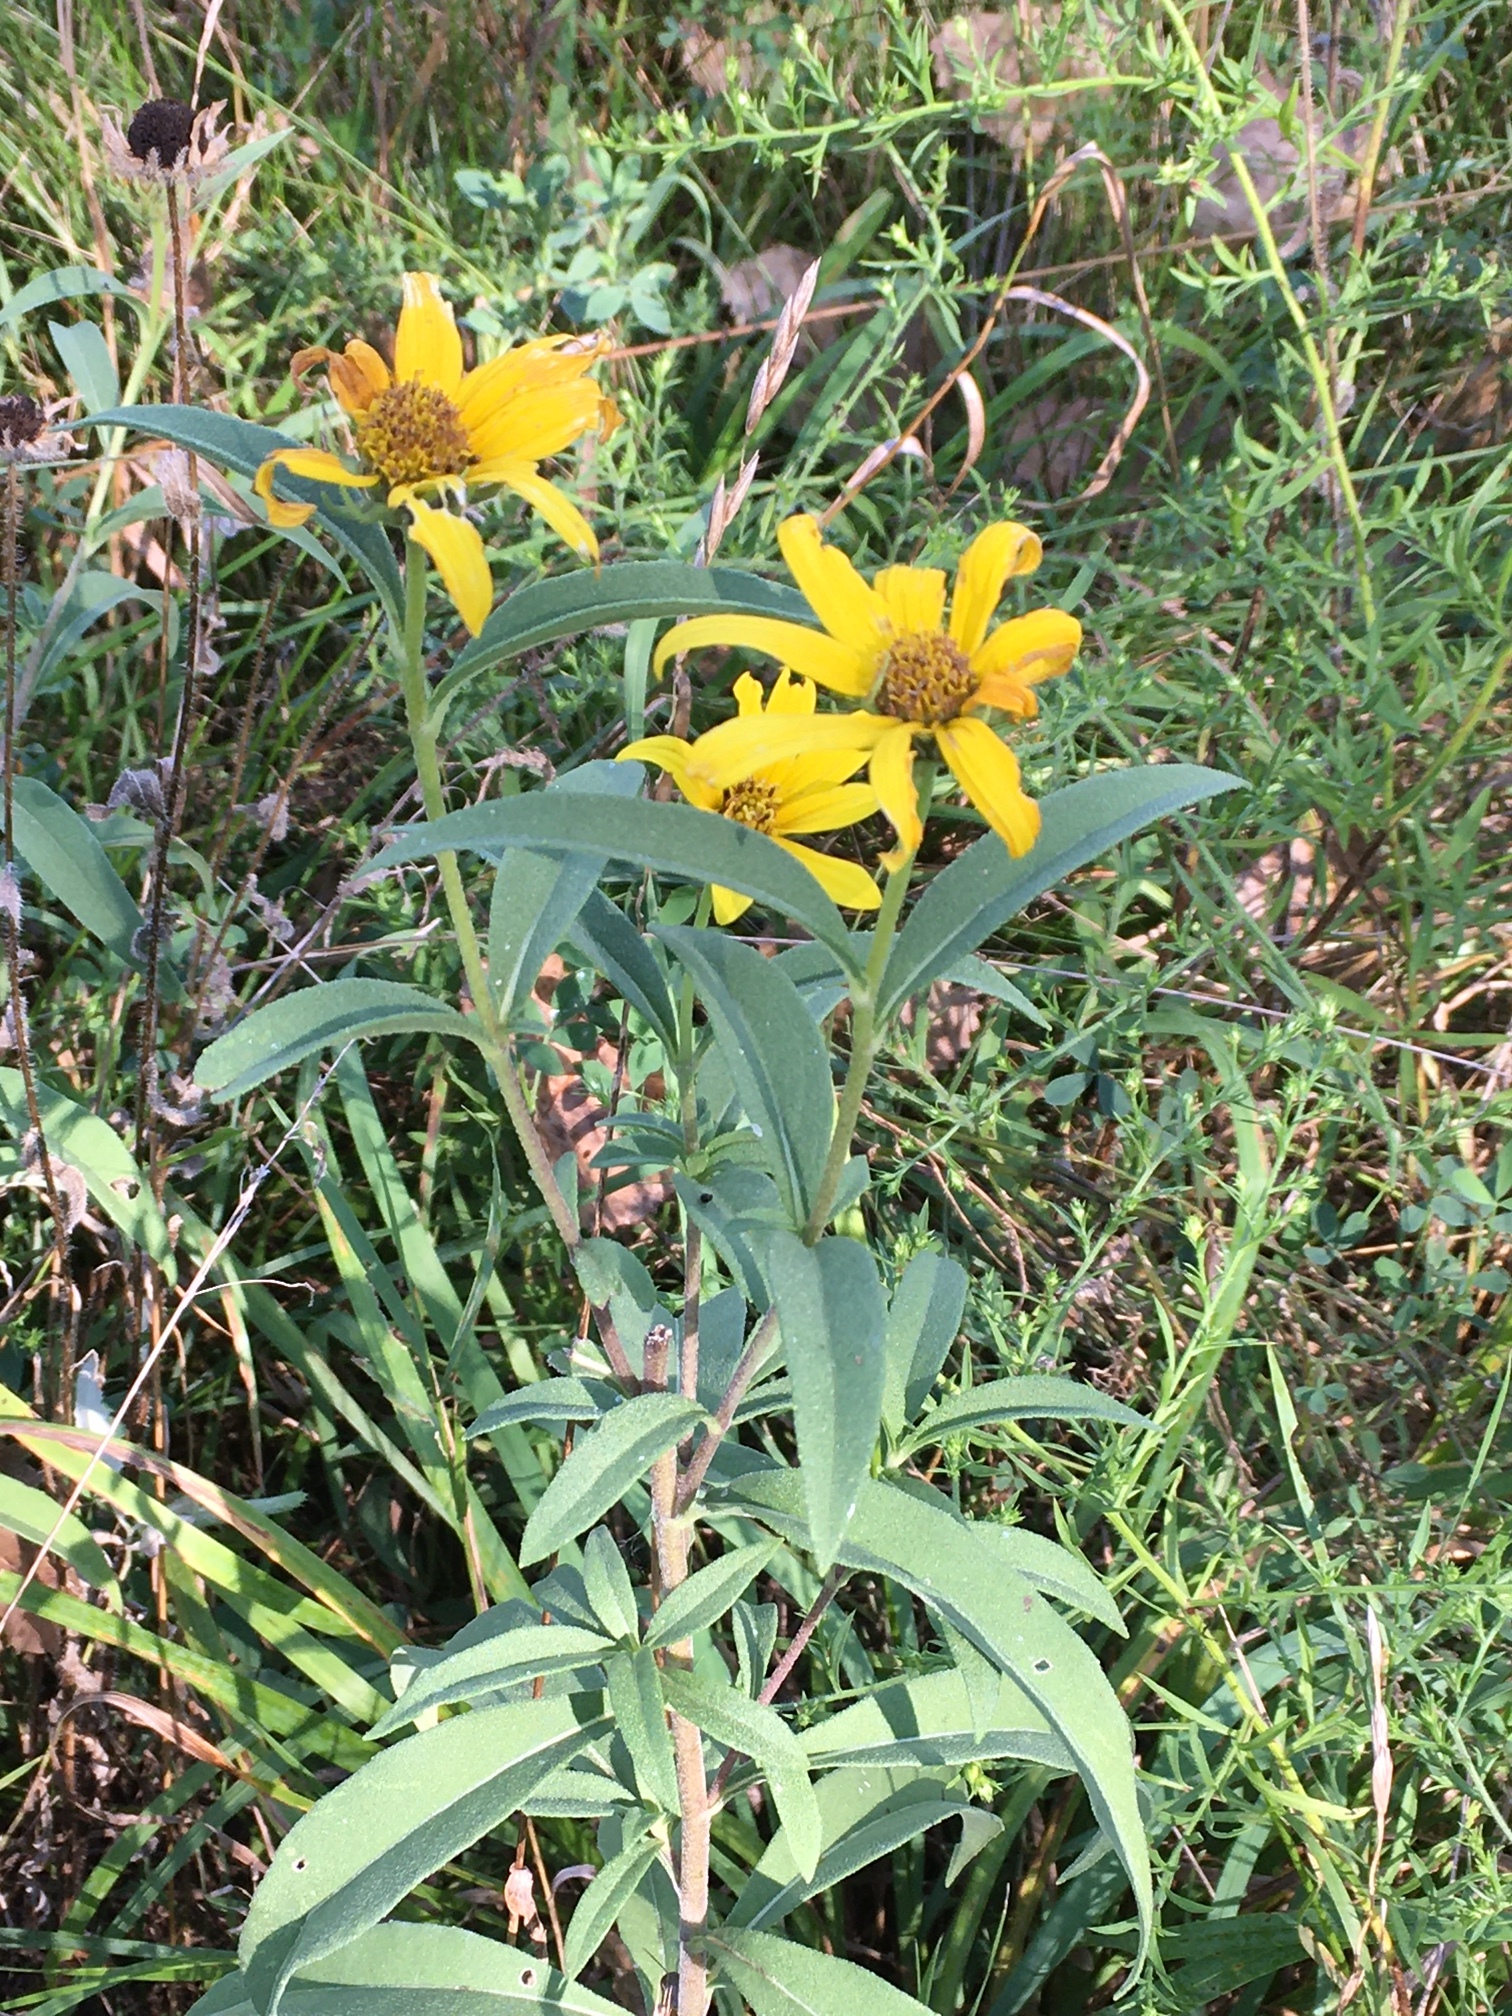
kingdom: Plantae
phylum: Tracheophyta
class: Magnoliopsida
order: Asterales
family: Asteraceae
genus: Helianthus
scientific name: Helianthus maximiliani
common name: Maximilian's sunflower
